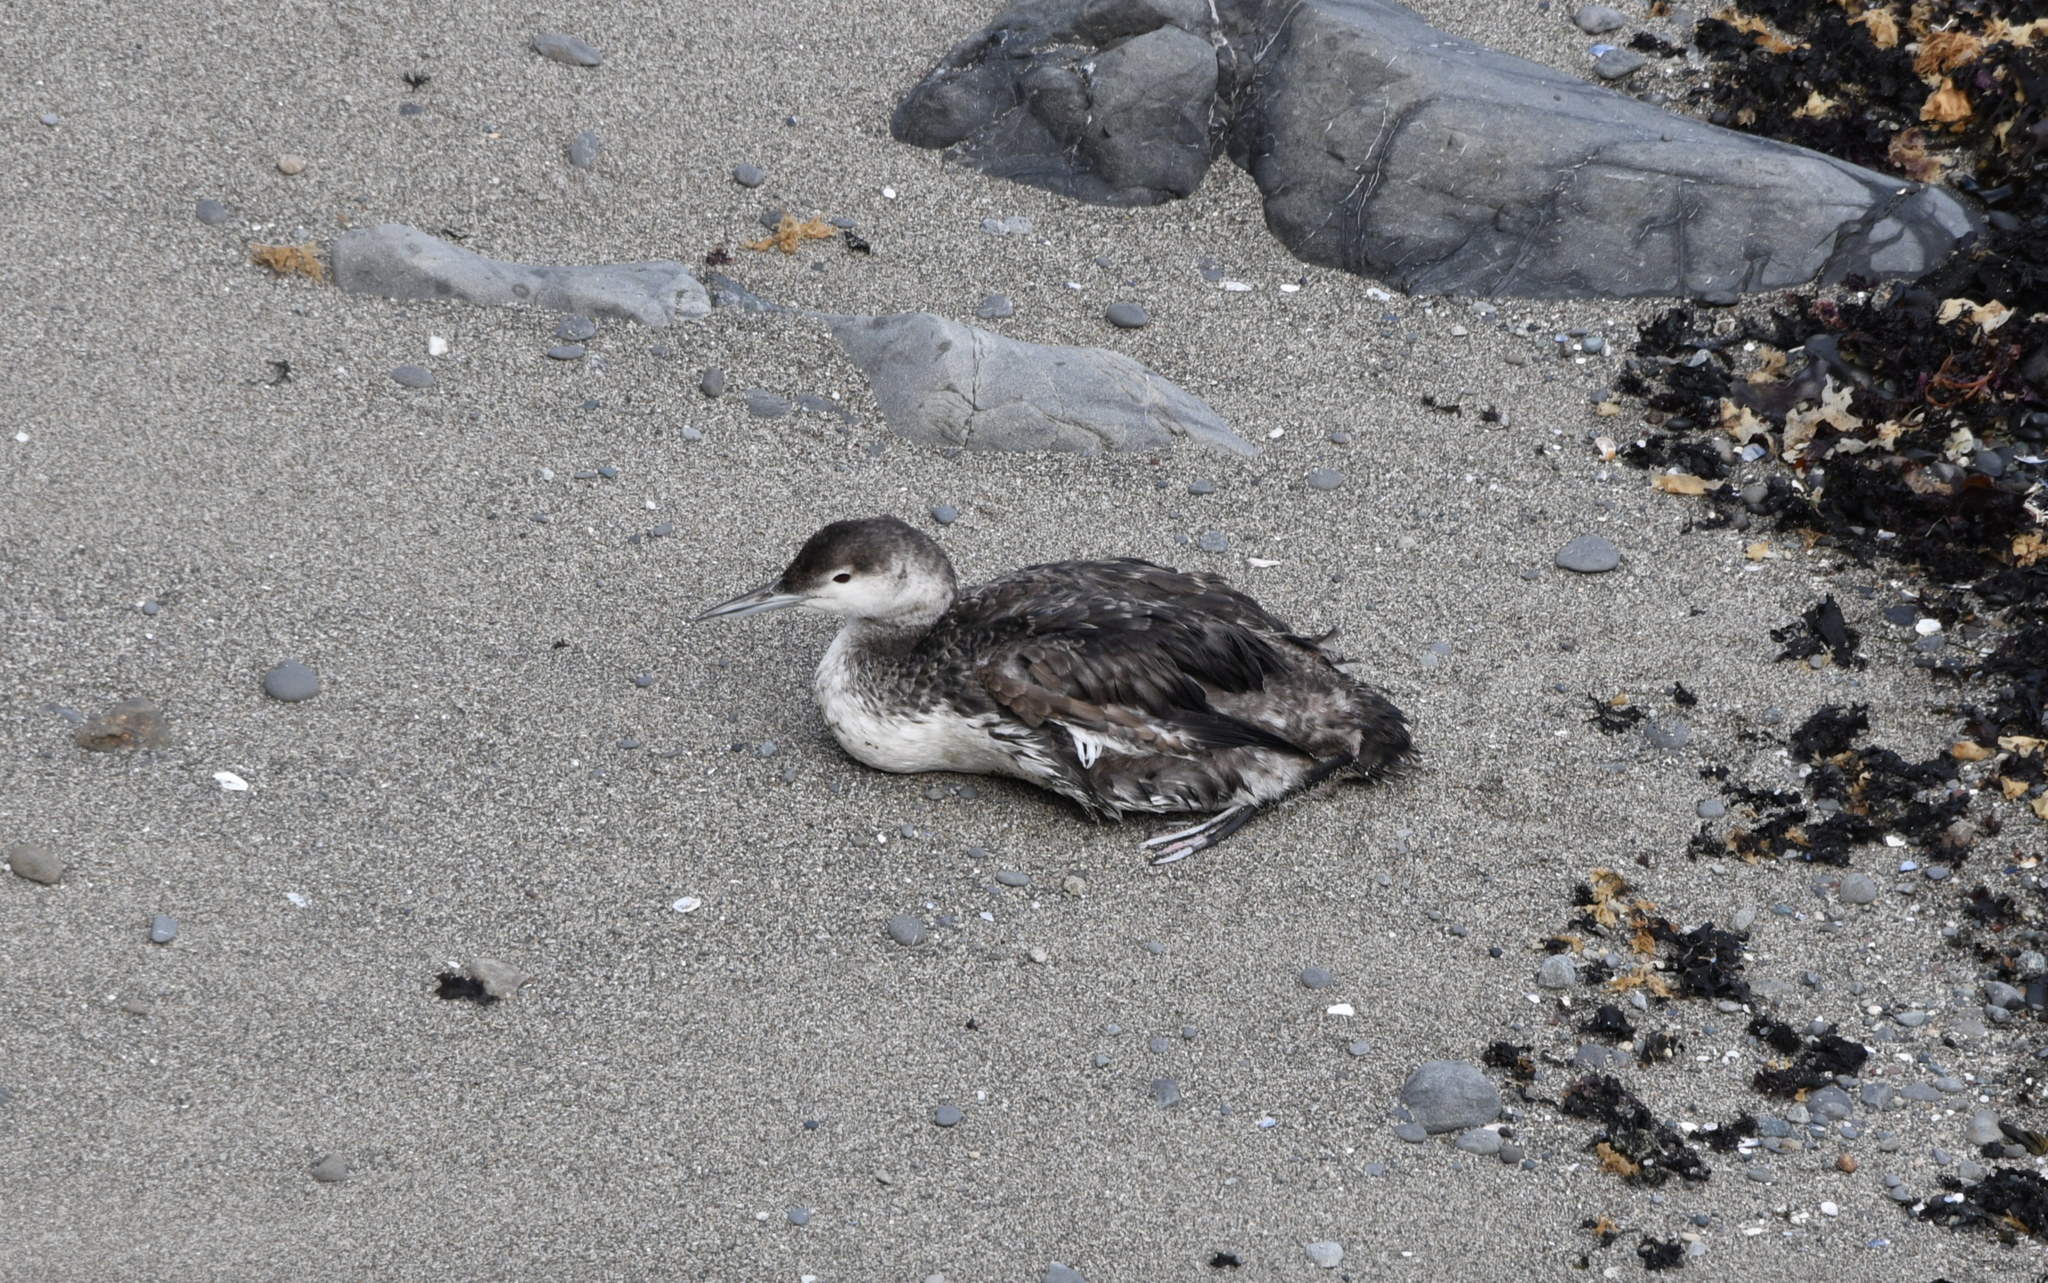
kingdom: Animalia
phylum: Chordata
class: Aves
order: Gaviiformes
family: Gaviidae
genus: Gavia
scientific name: Gavia pacifica
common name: Pacific loon
